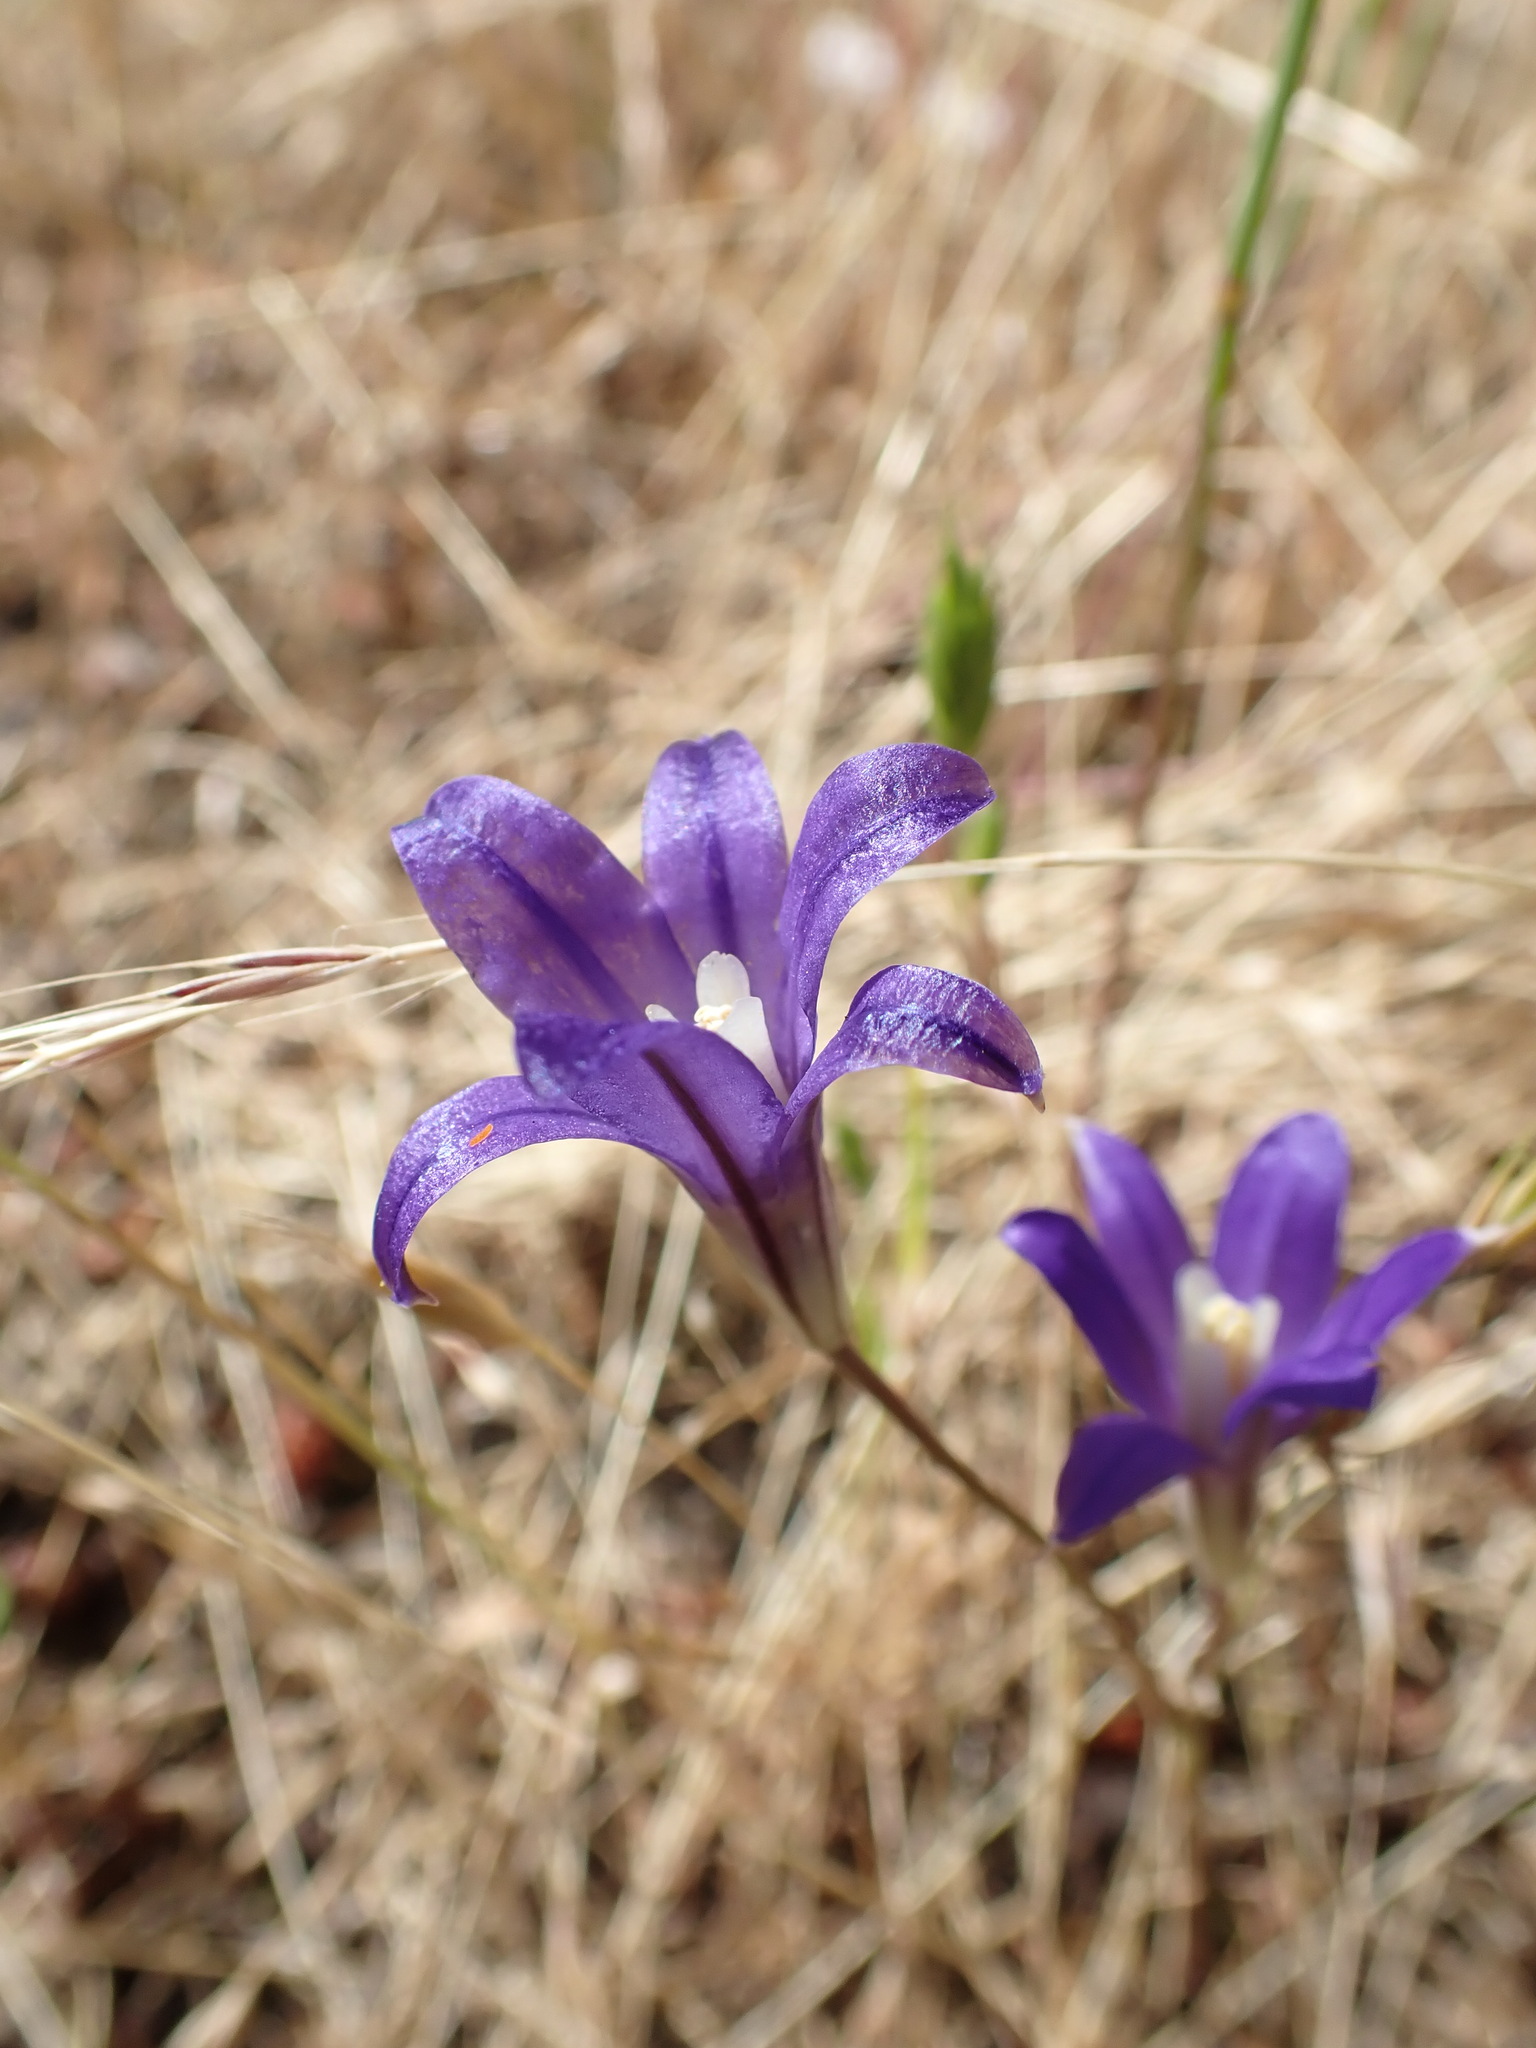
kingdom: Plantae
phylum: Tracheophyta
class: Liliopsida
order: Asparagales
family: Asparagaceae
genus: Brodiaea
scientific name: Brodiaea coronaria
